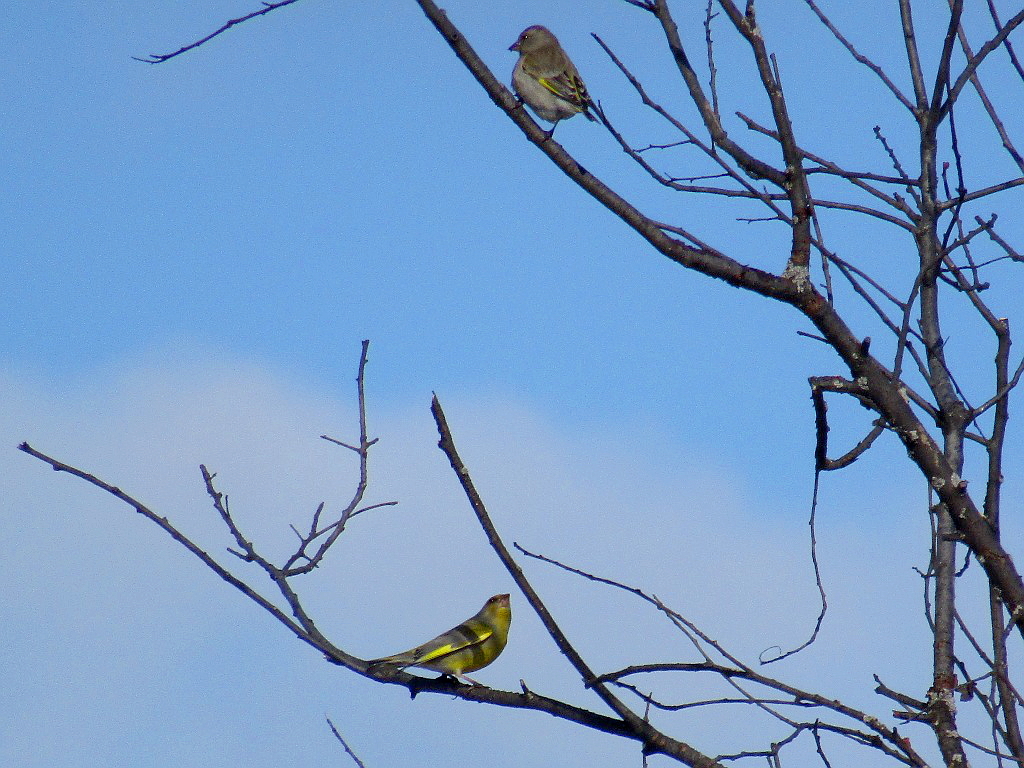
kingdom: Plantae
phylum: Tracheophyta
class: Liliopsida
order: Poales
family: Poaceae
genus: Chloris
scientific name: Chloris chloris
